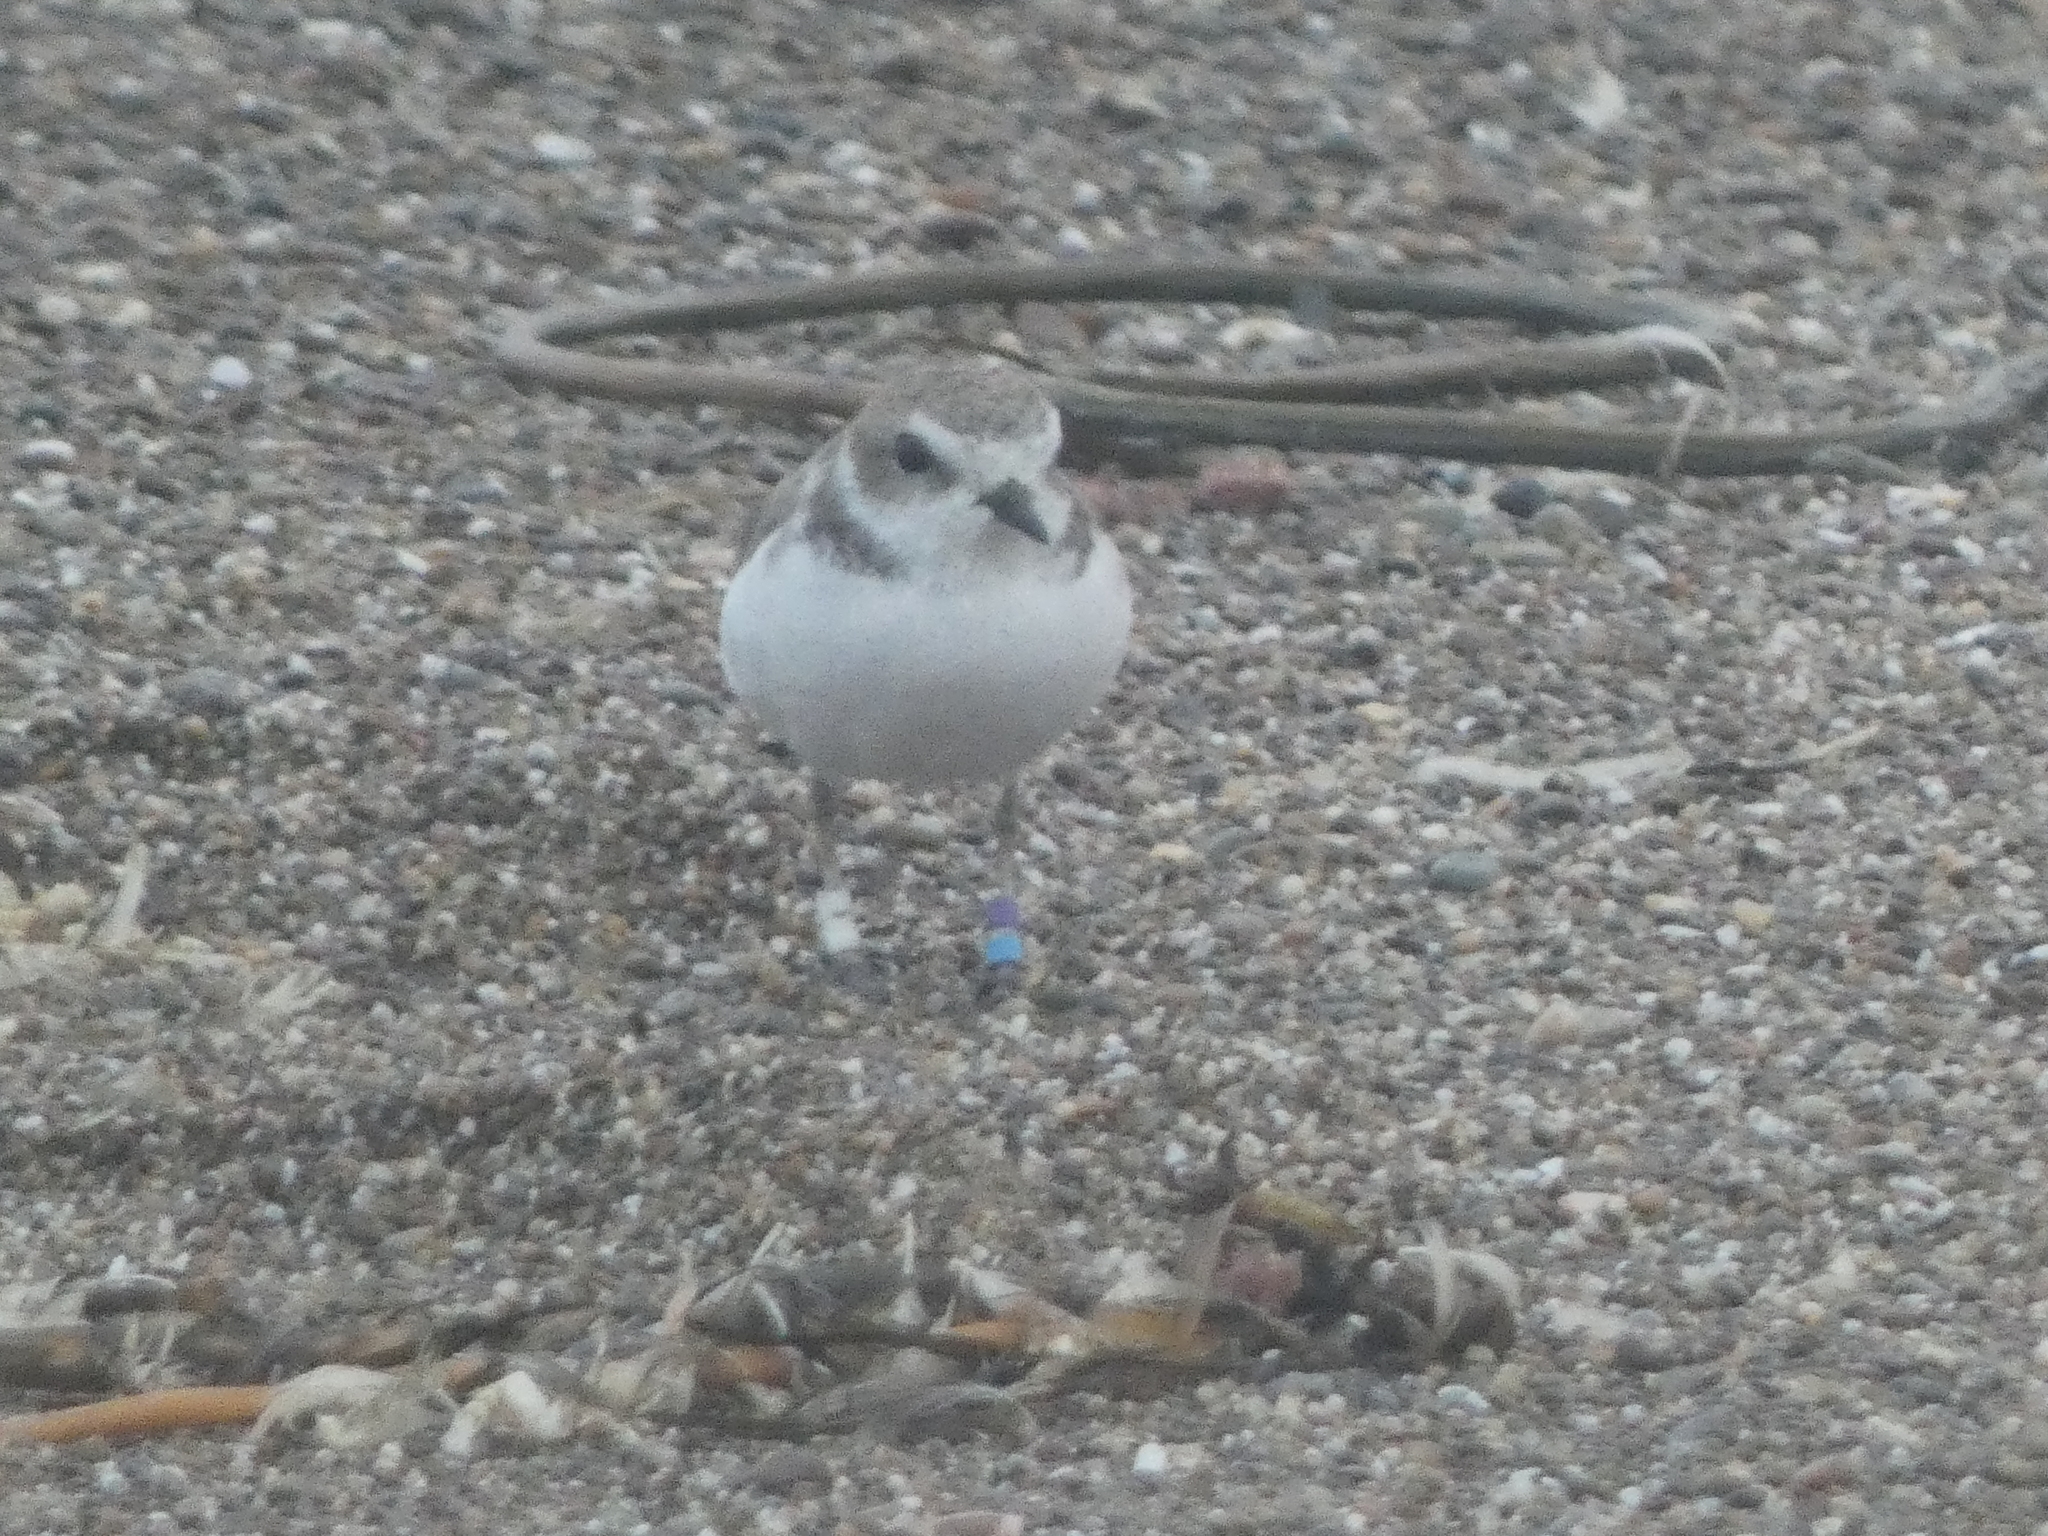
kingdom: Animalia
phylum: Chordata
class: Aves
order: Charadriiformes
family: Charadriidae
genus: Anarhynchus
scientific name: Anarhynchus
